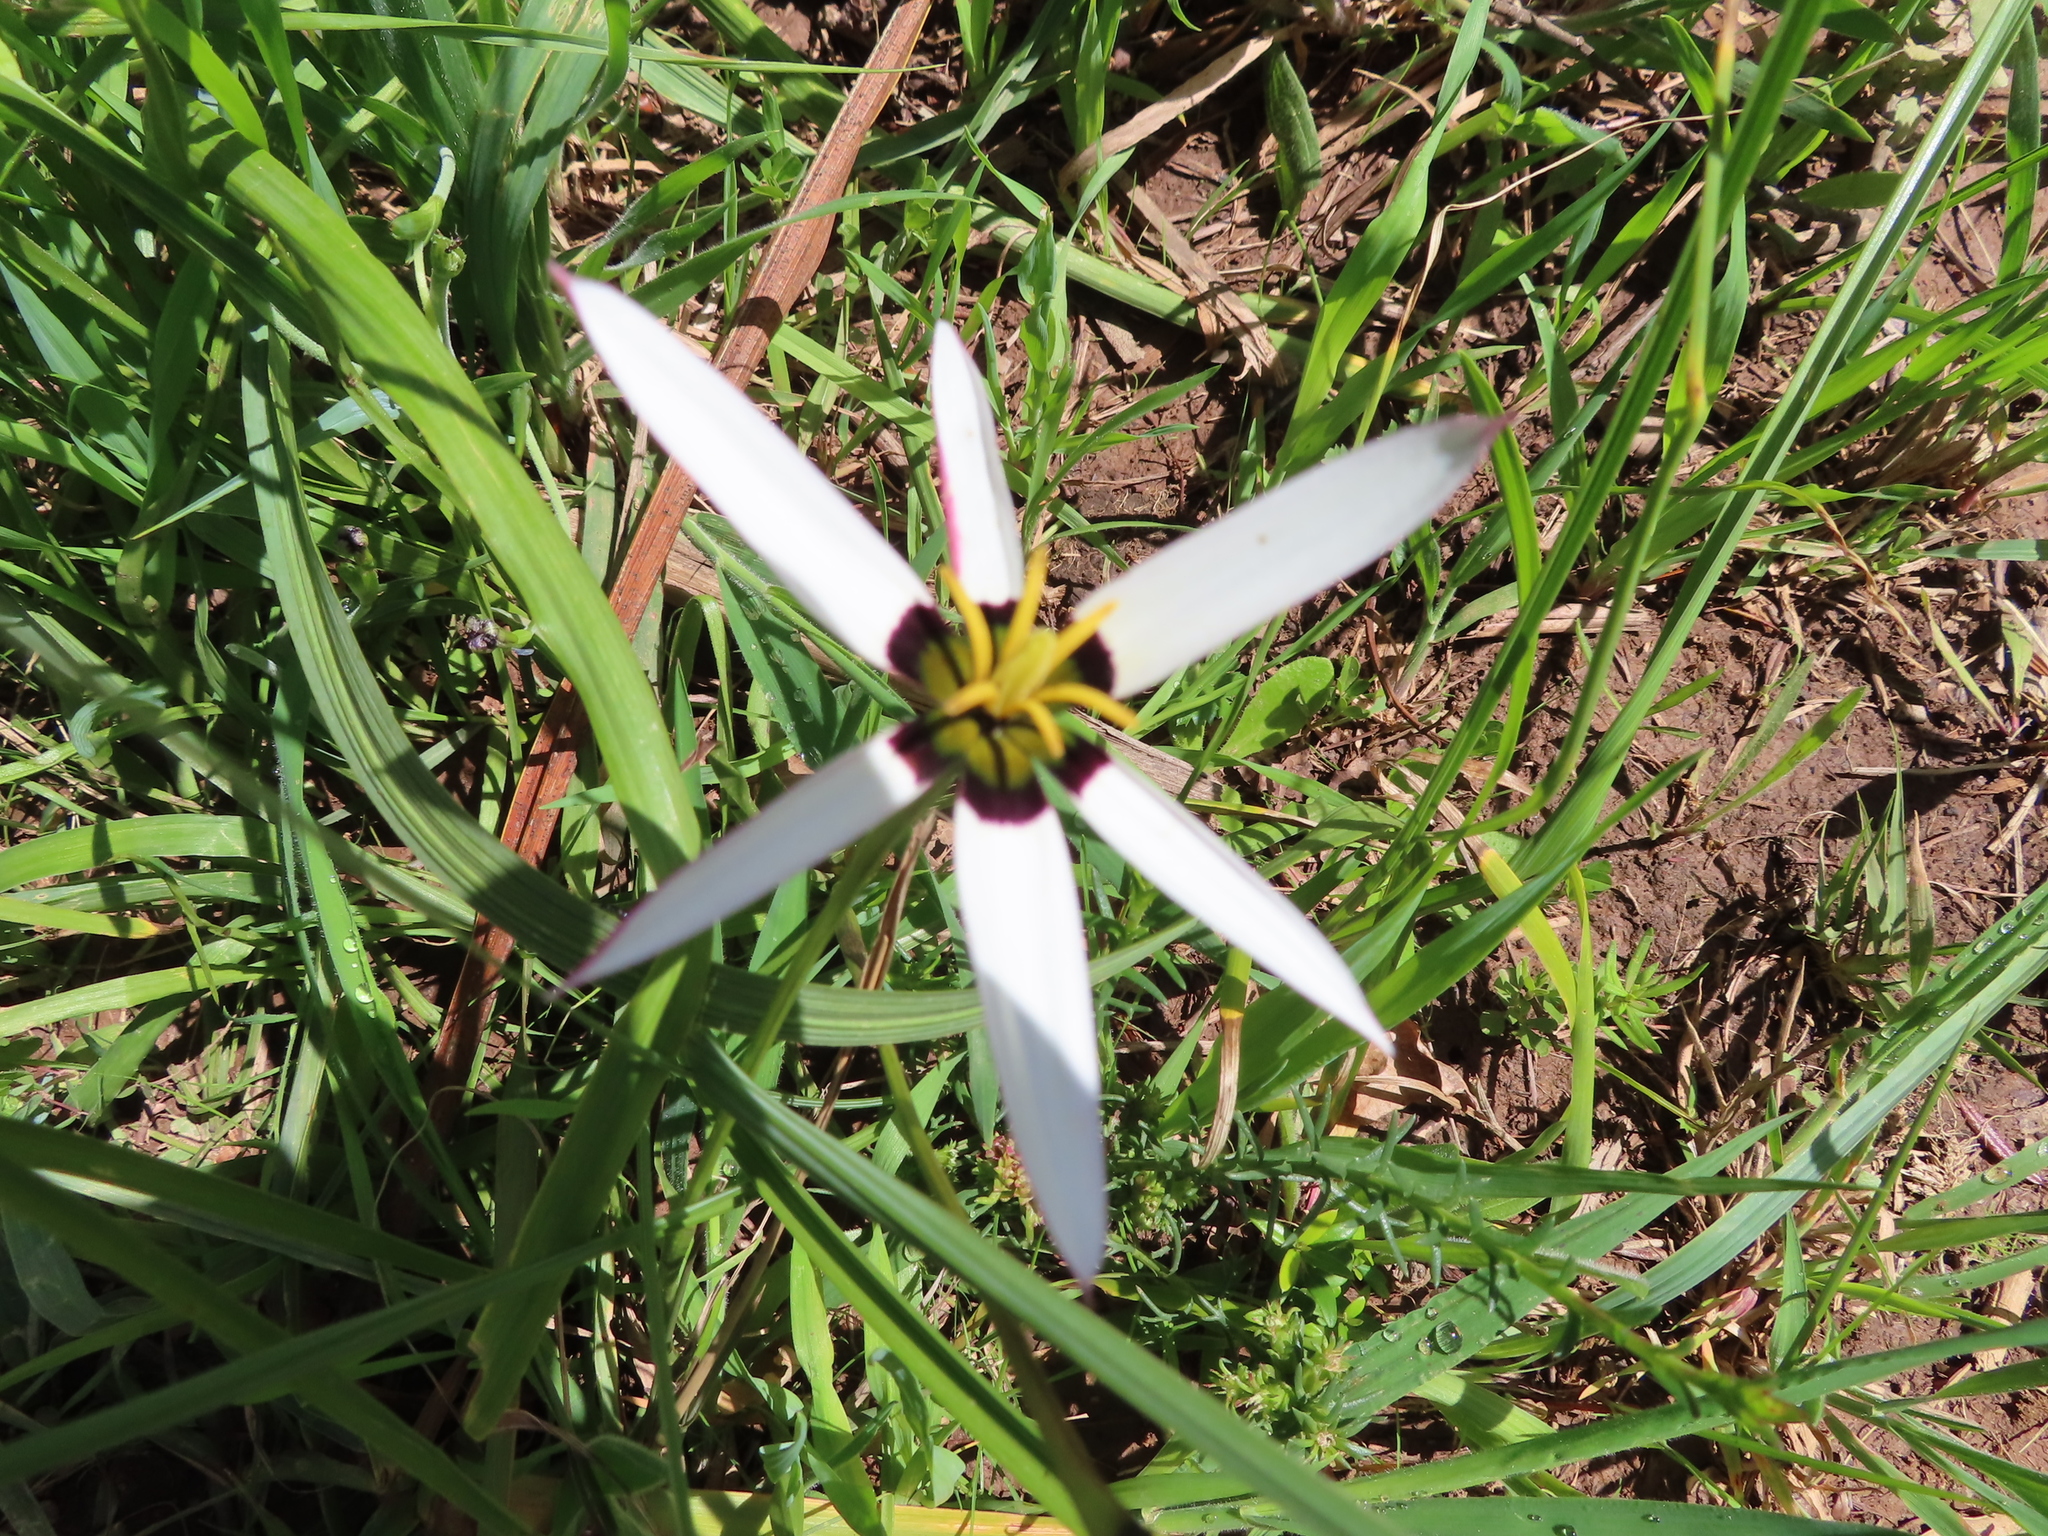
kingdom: Plantae
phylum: Tracheophyta
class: Liliopsida
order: Asparagales
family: Hypoxidaceae
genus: Pauridia
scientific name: Pauridia capensis
